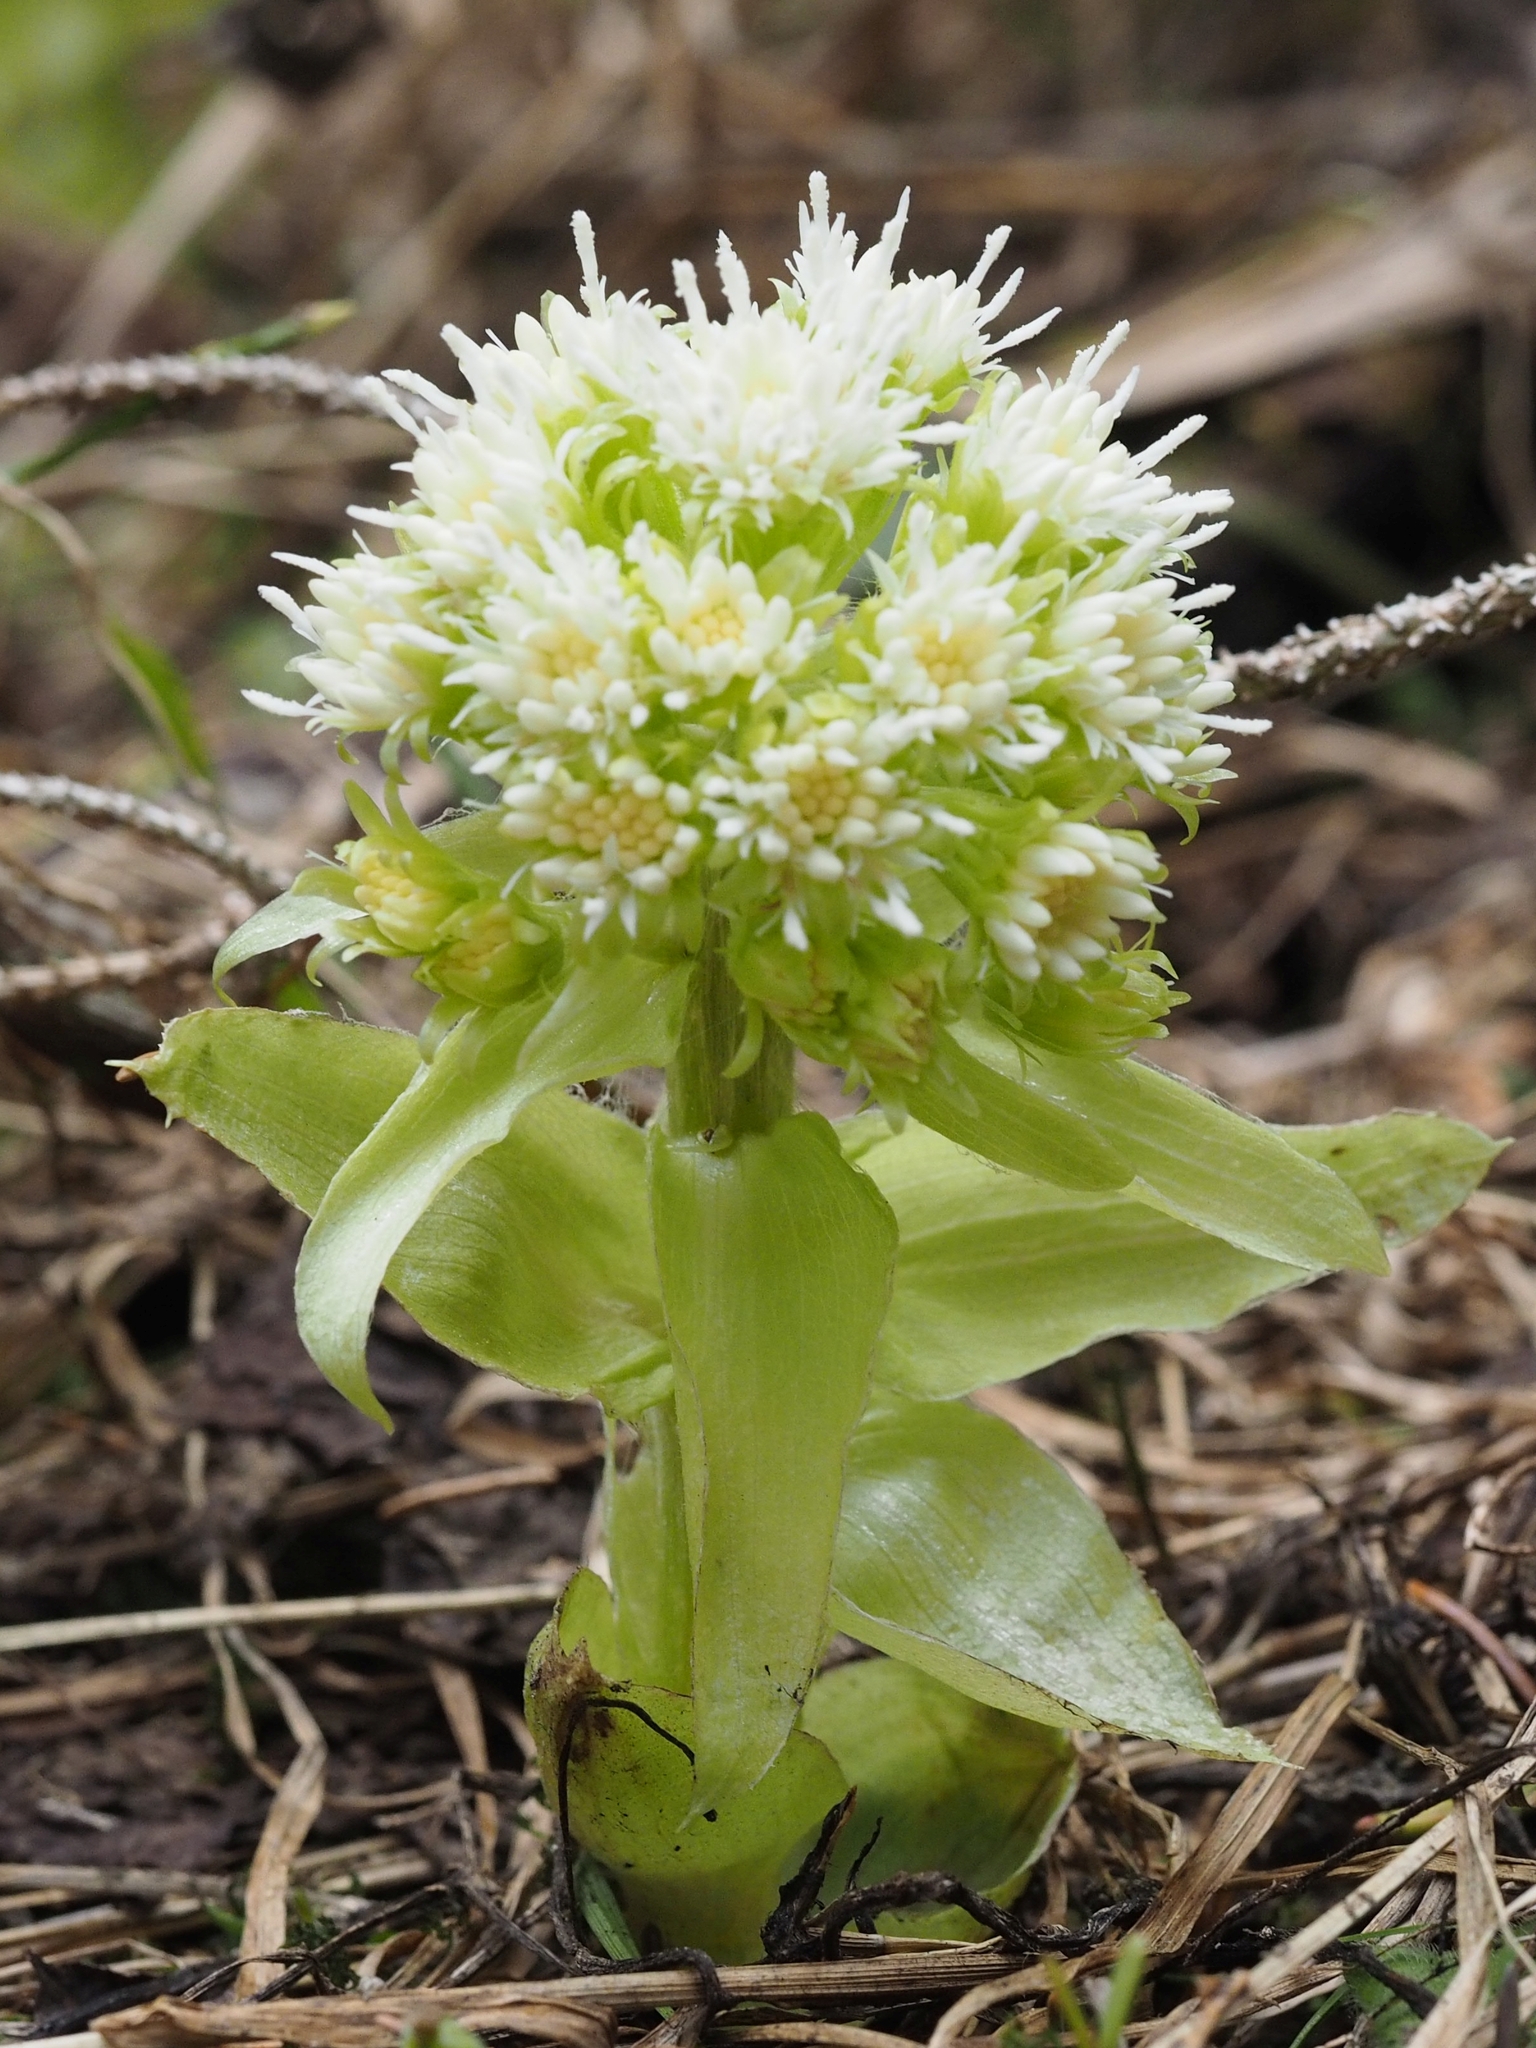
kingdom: Plantae
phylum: Tracheophyta
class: Magnoliopsida
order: Asterales
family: Asteraceae
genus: Petasites
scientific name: Petasites albus
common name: White butterbur
